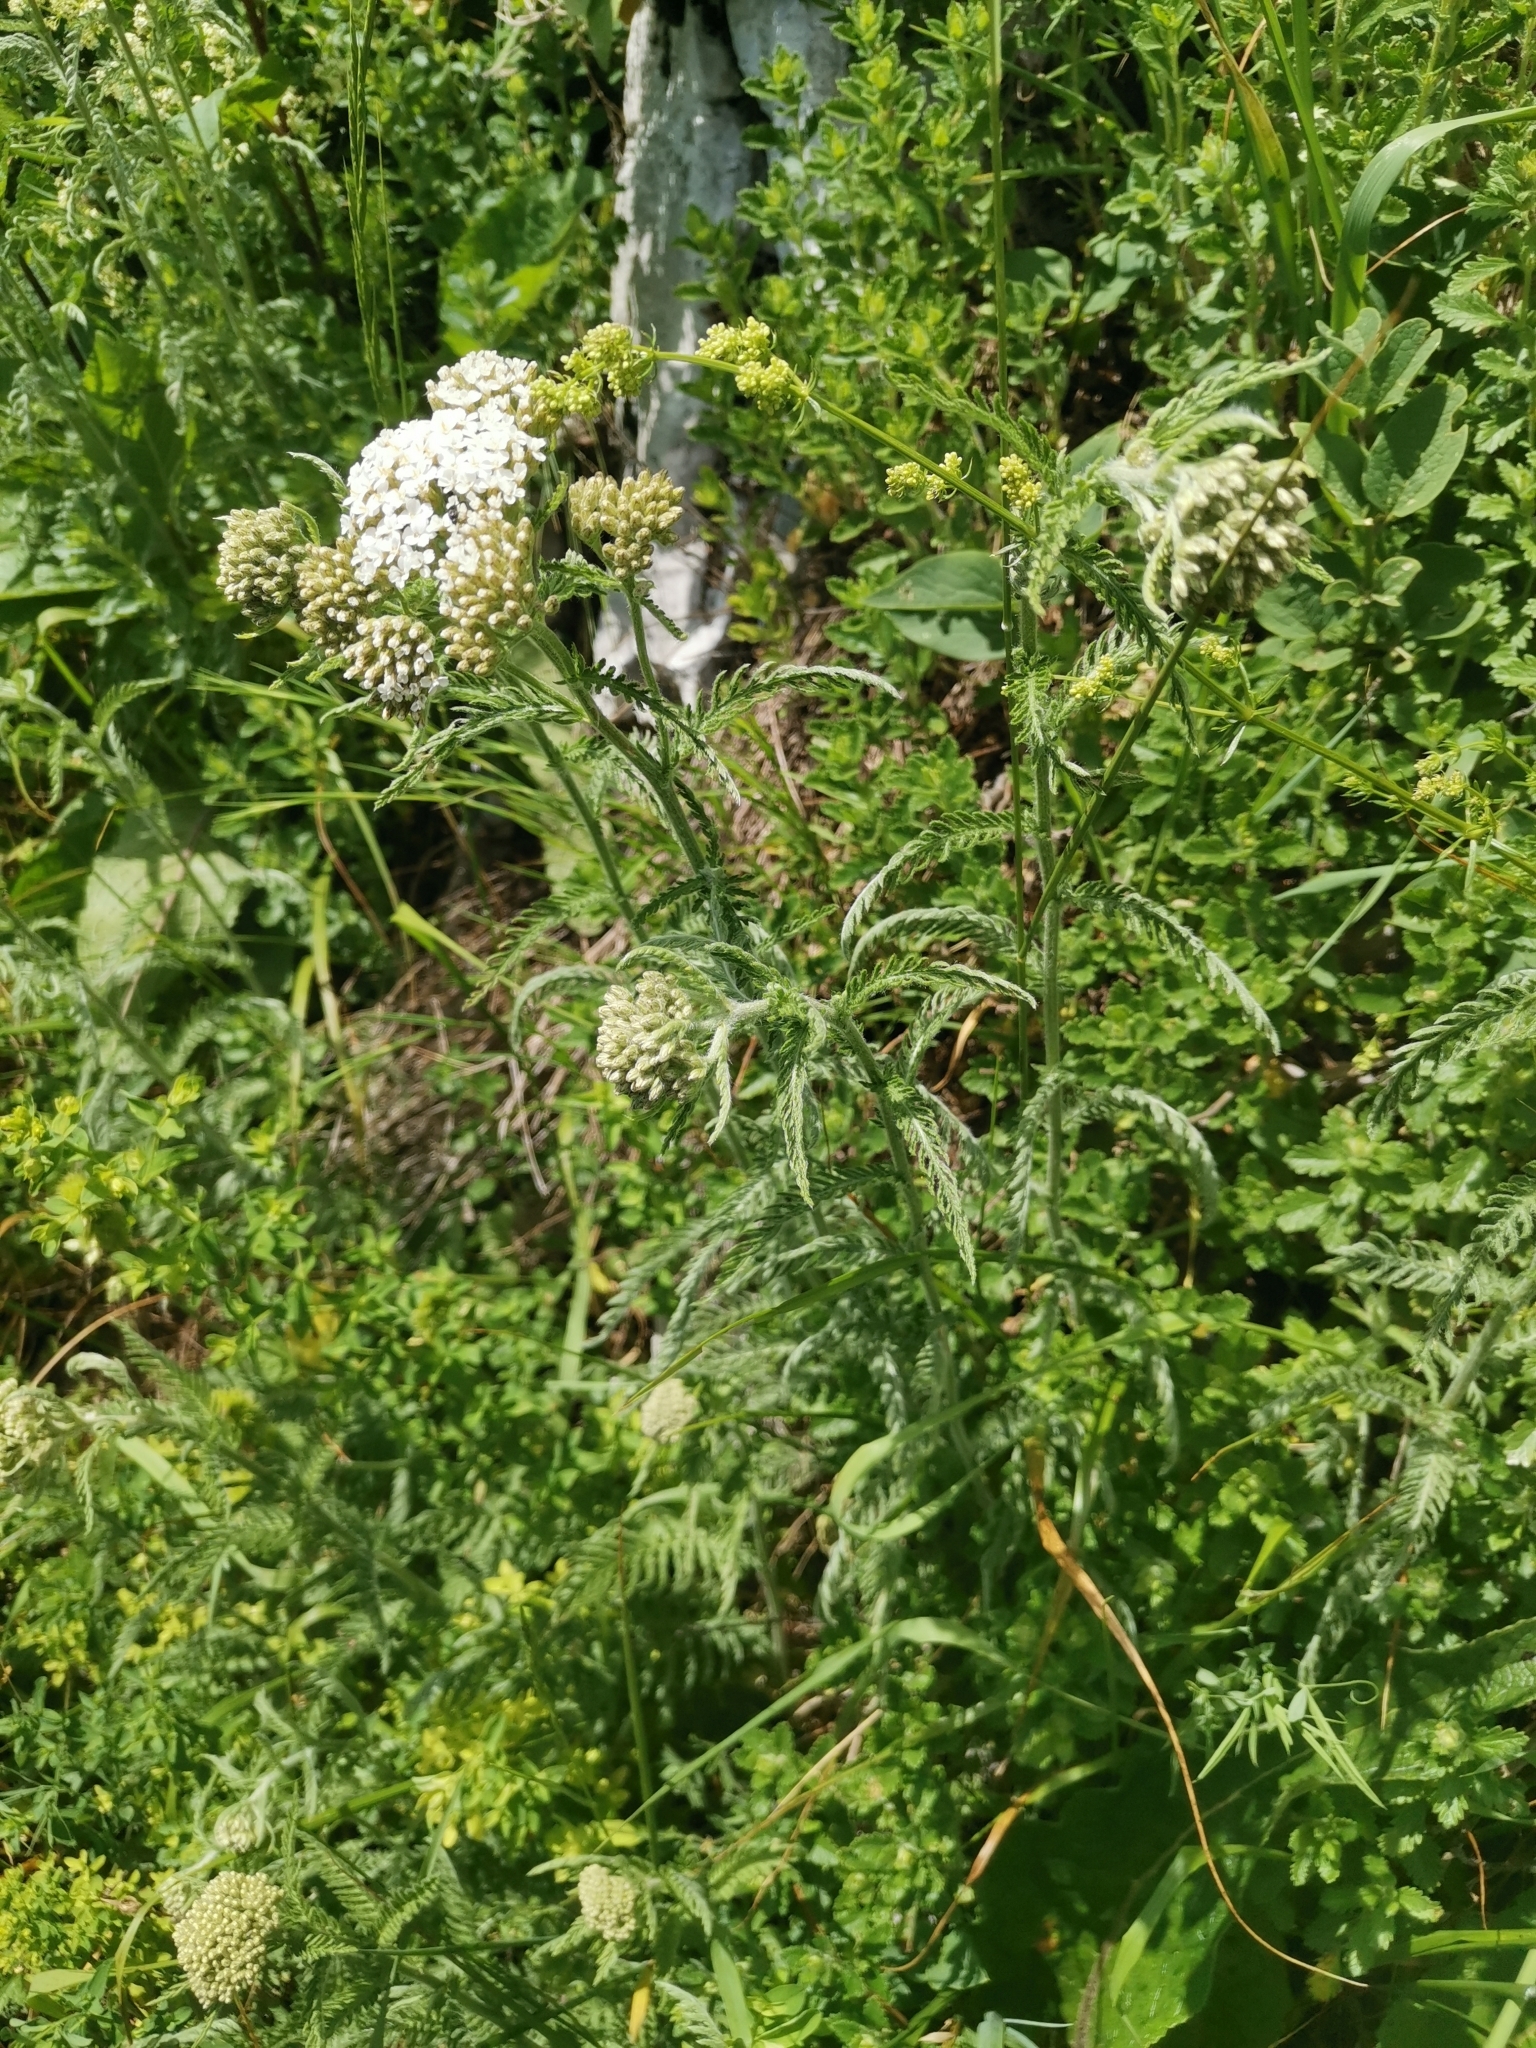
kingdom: Plantae
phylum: Tracheophyta
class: Magnoliopsida
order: Asterales
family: Asteraceae
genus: Achillea
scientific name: Achillea distans
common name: Tall yarrow
